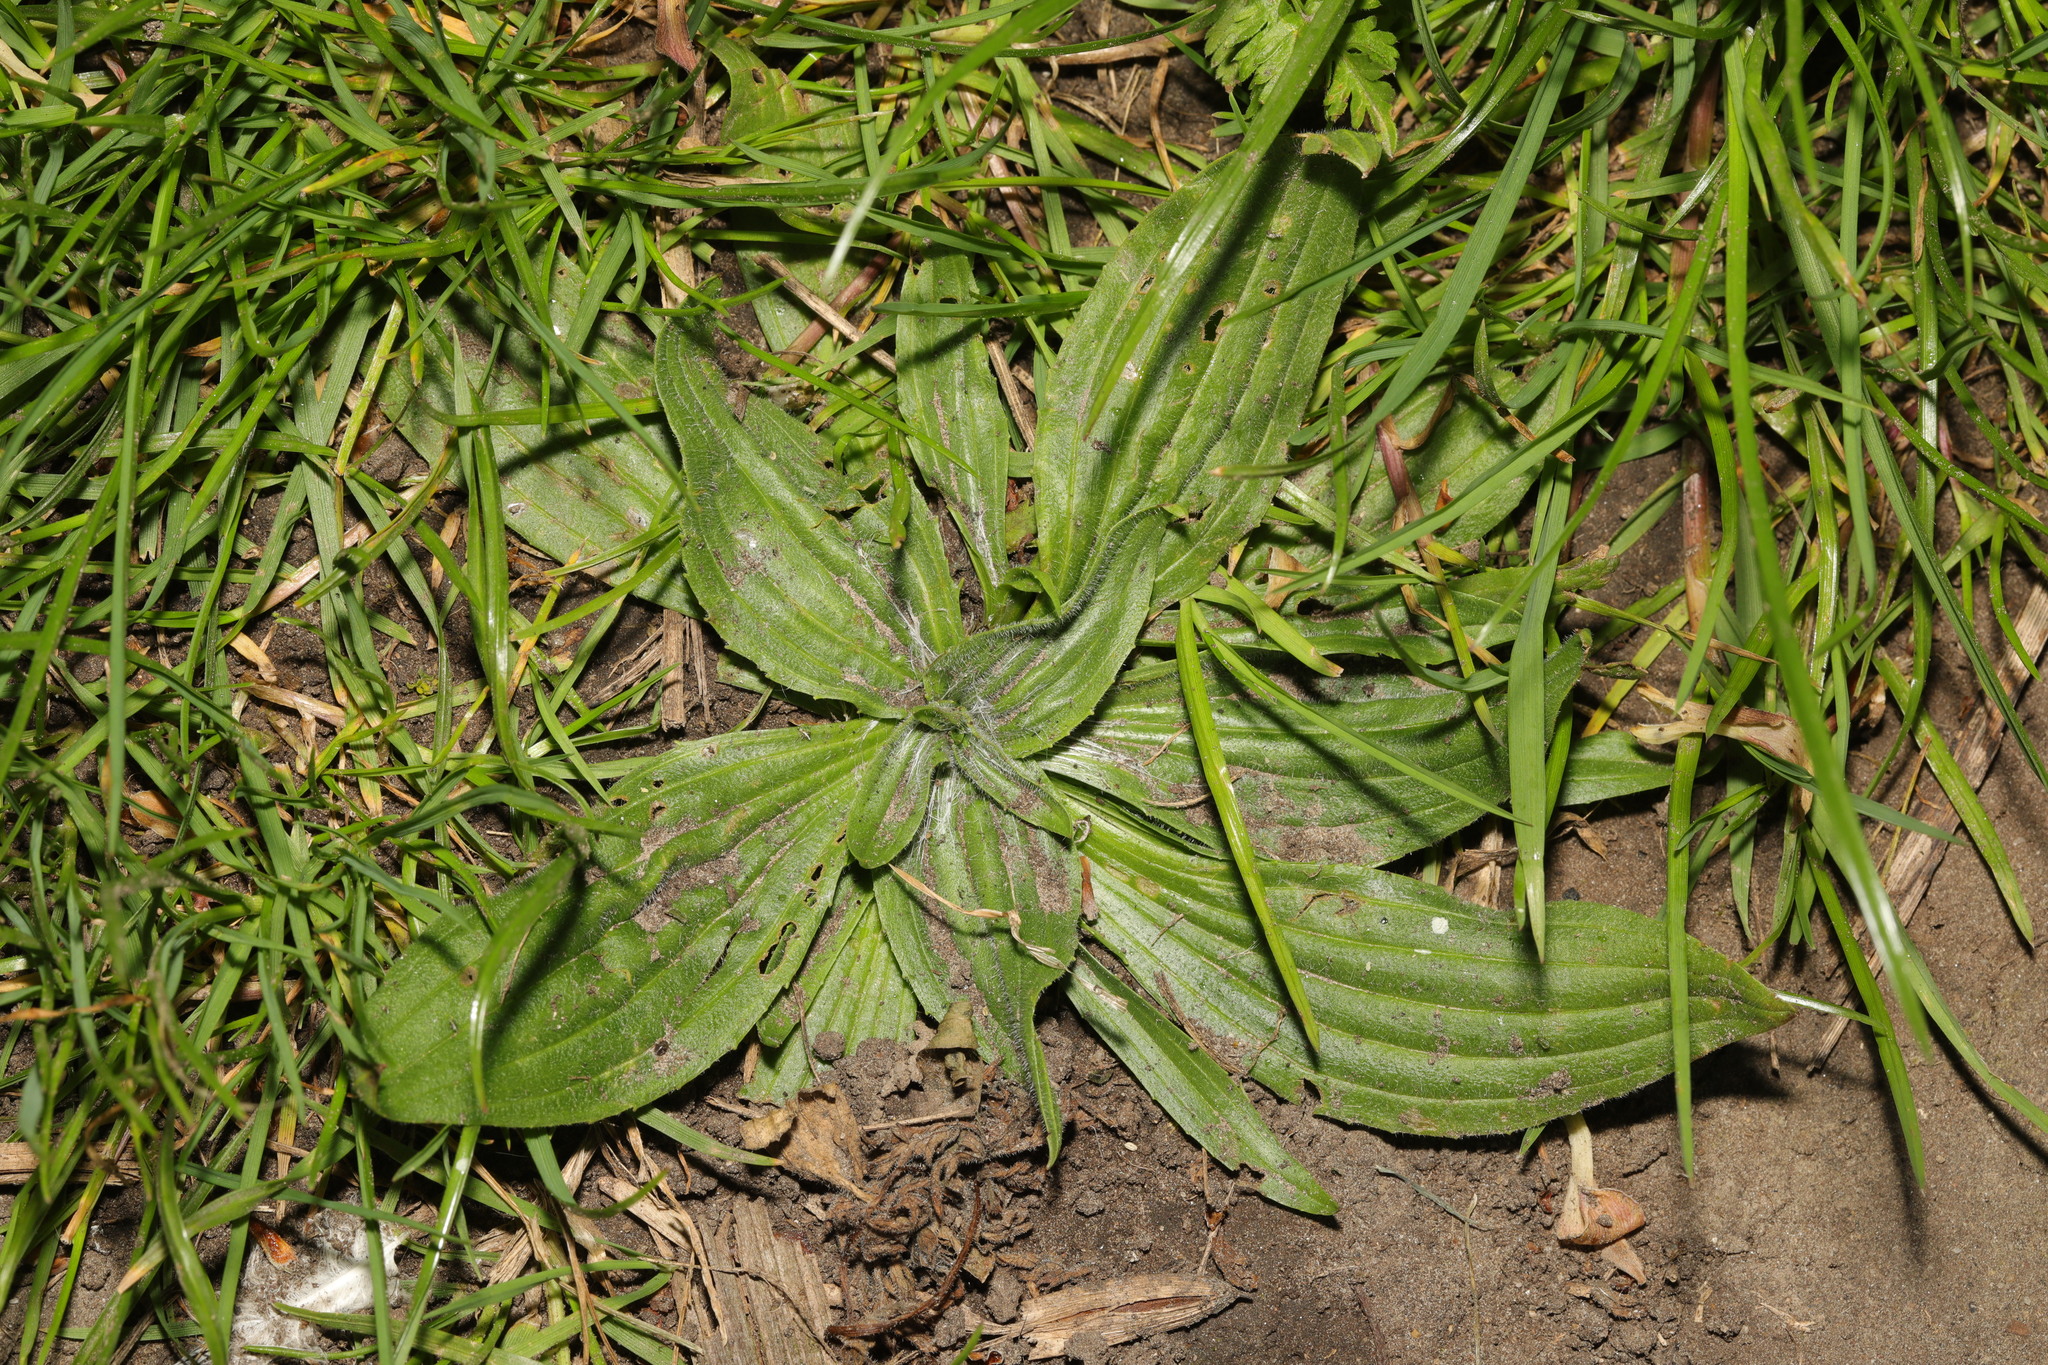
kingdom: Plantae
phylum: Tracheophyta
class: Magnoliopsida
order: Lamiales
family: Plantaginaceae
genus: Plantago
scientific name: Plantago media
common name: Hoary plantain
